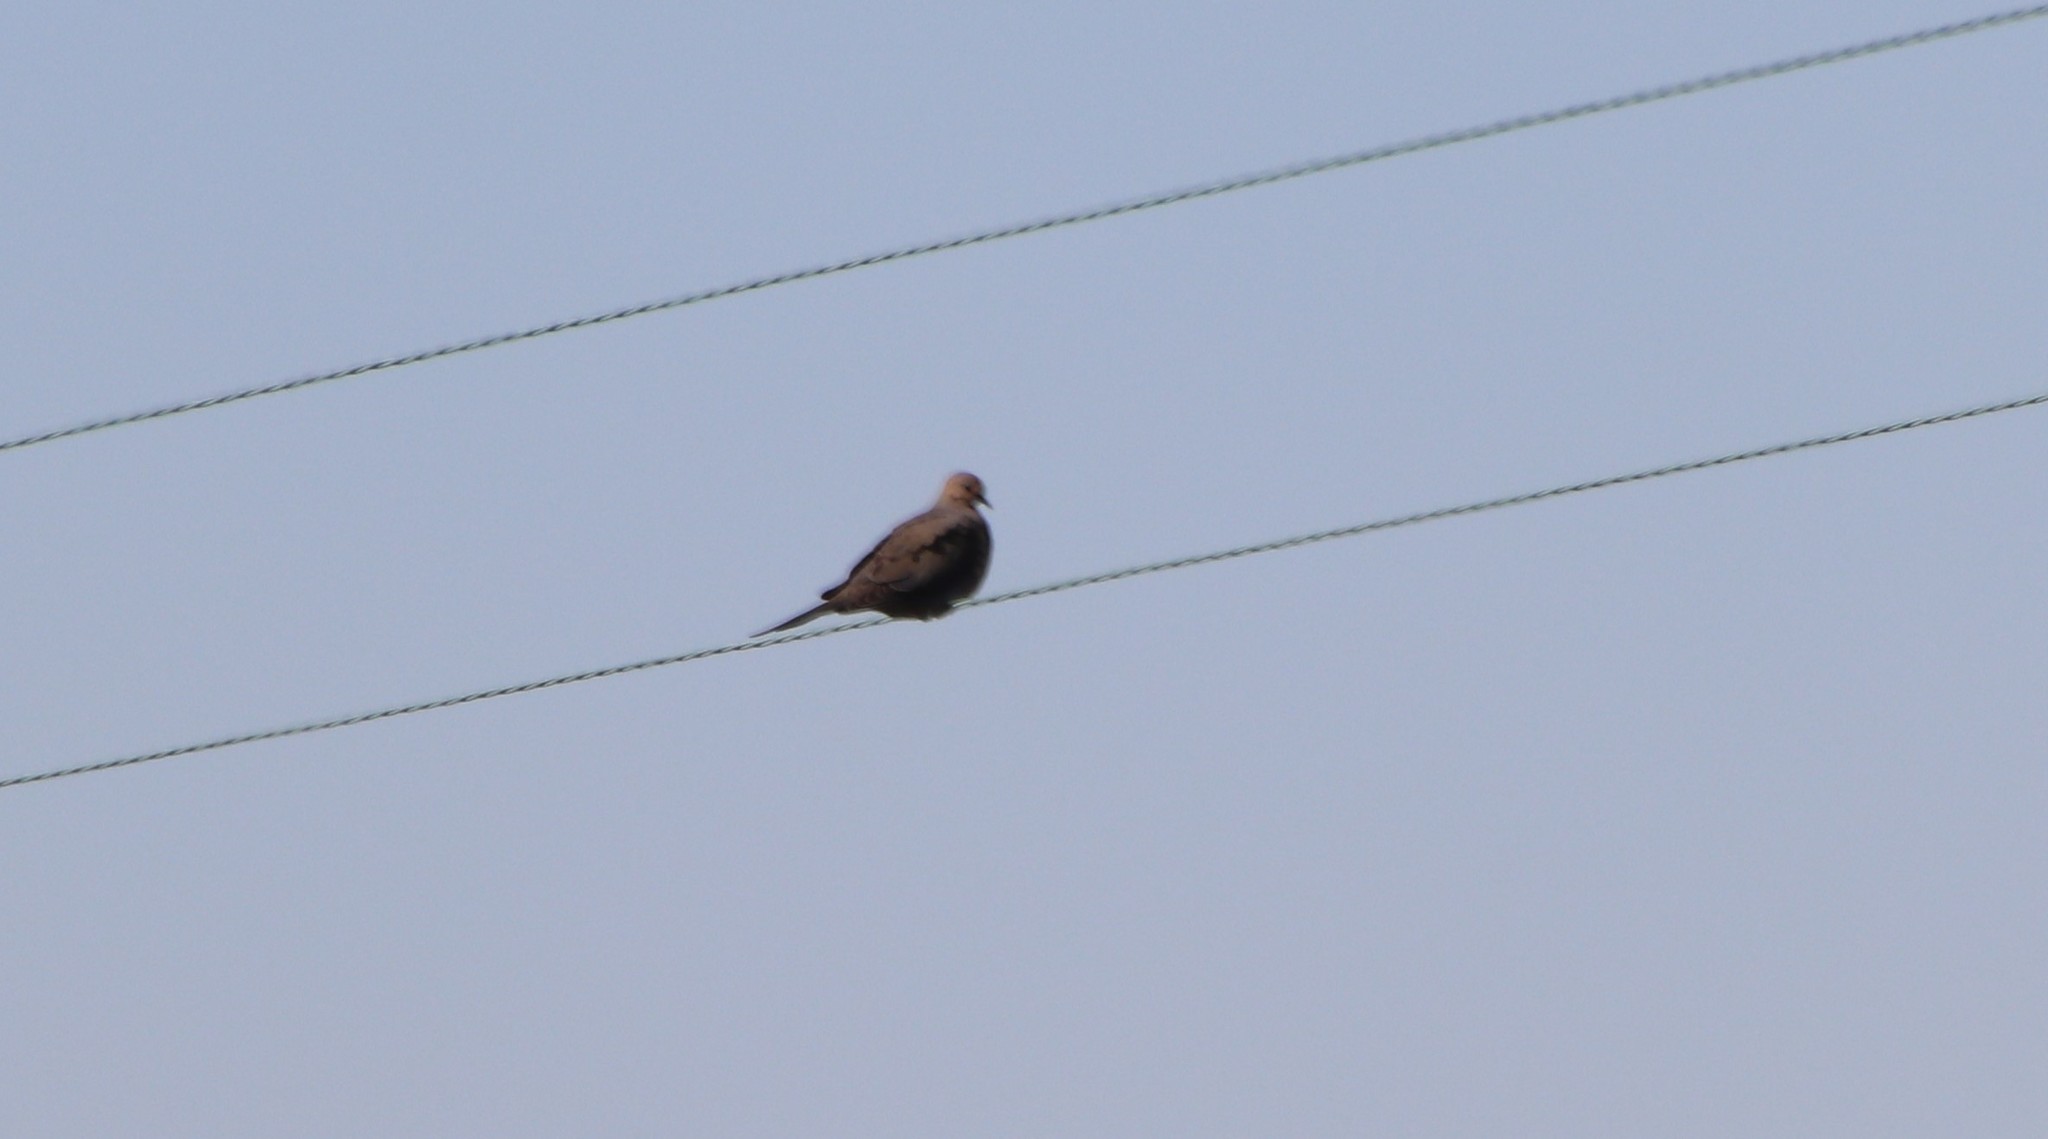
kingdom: Animalia
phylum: Chordata
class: Aves
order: Columbiformes
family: Columbidae
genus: Zenaida
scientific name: Zenaida macroura
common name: Mourning dove
